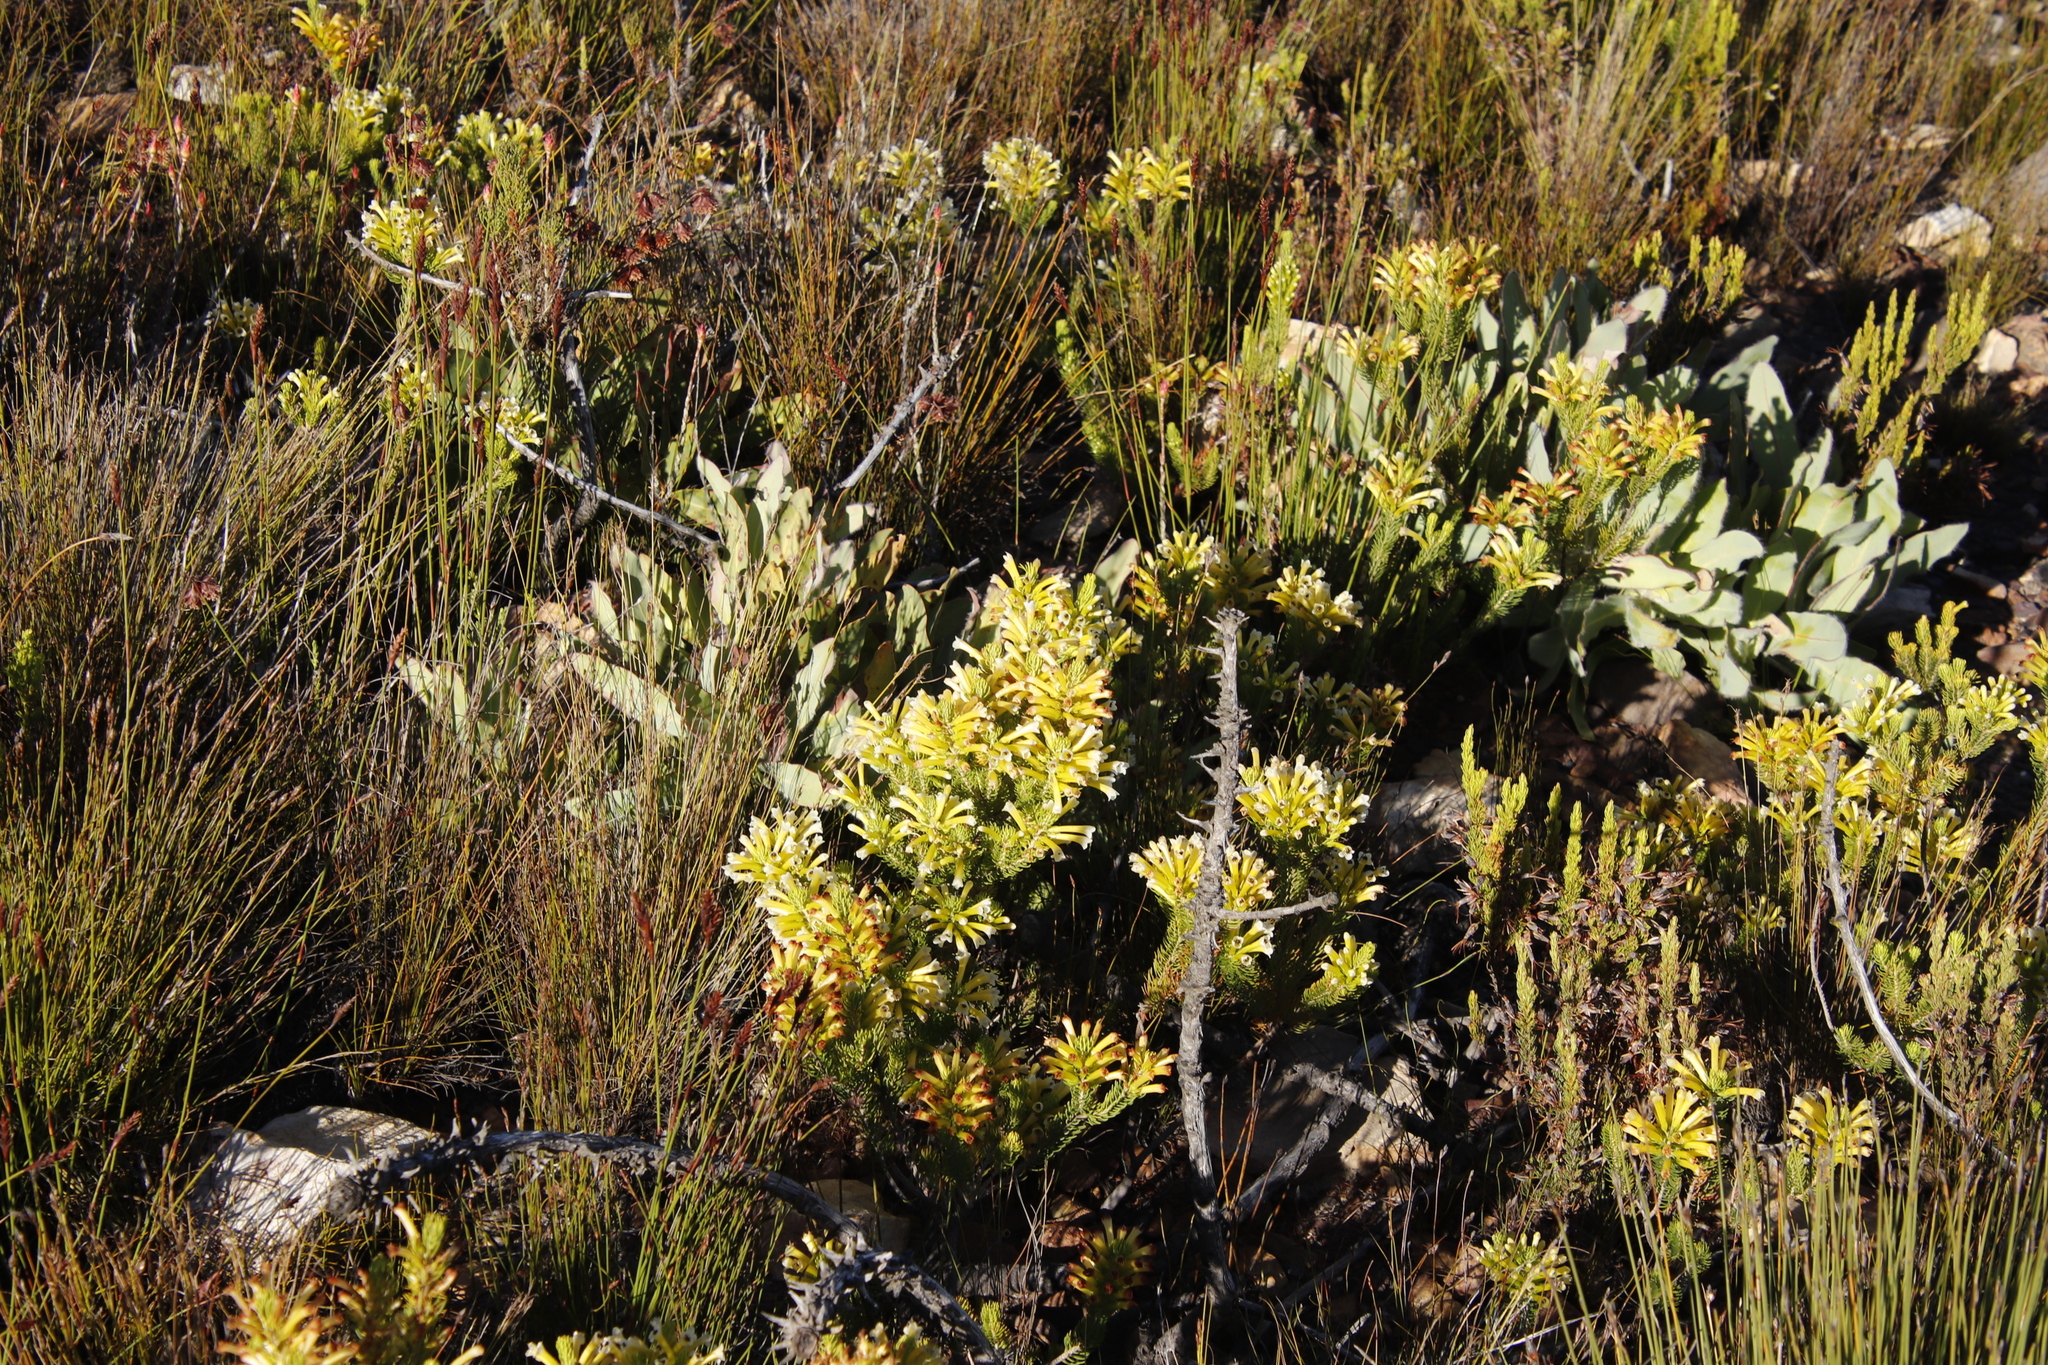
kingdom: Plantae
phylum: Tracheophyta
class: Magnoliopsida
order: Proteales
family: Proteaceae
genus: Protea
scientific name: Protea magnifica
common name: Bearded sugarbush
